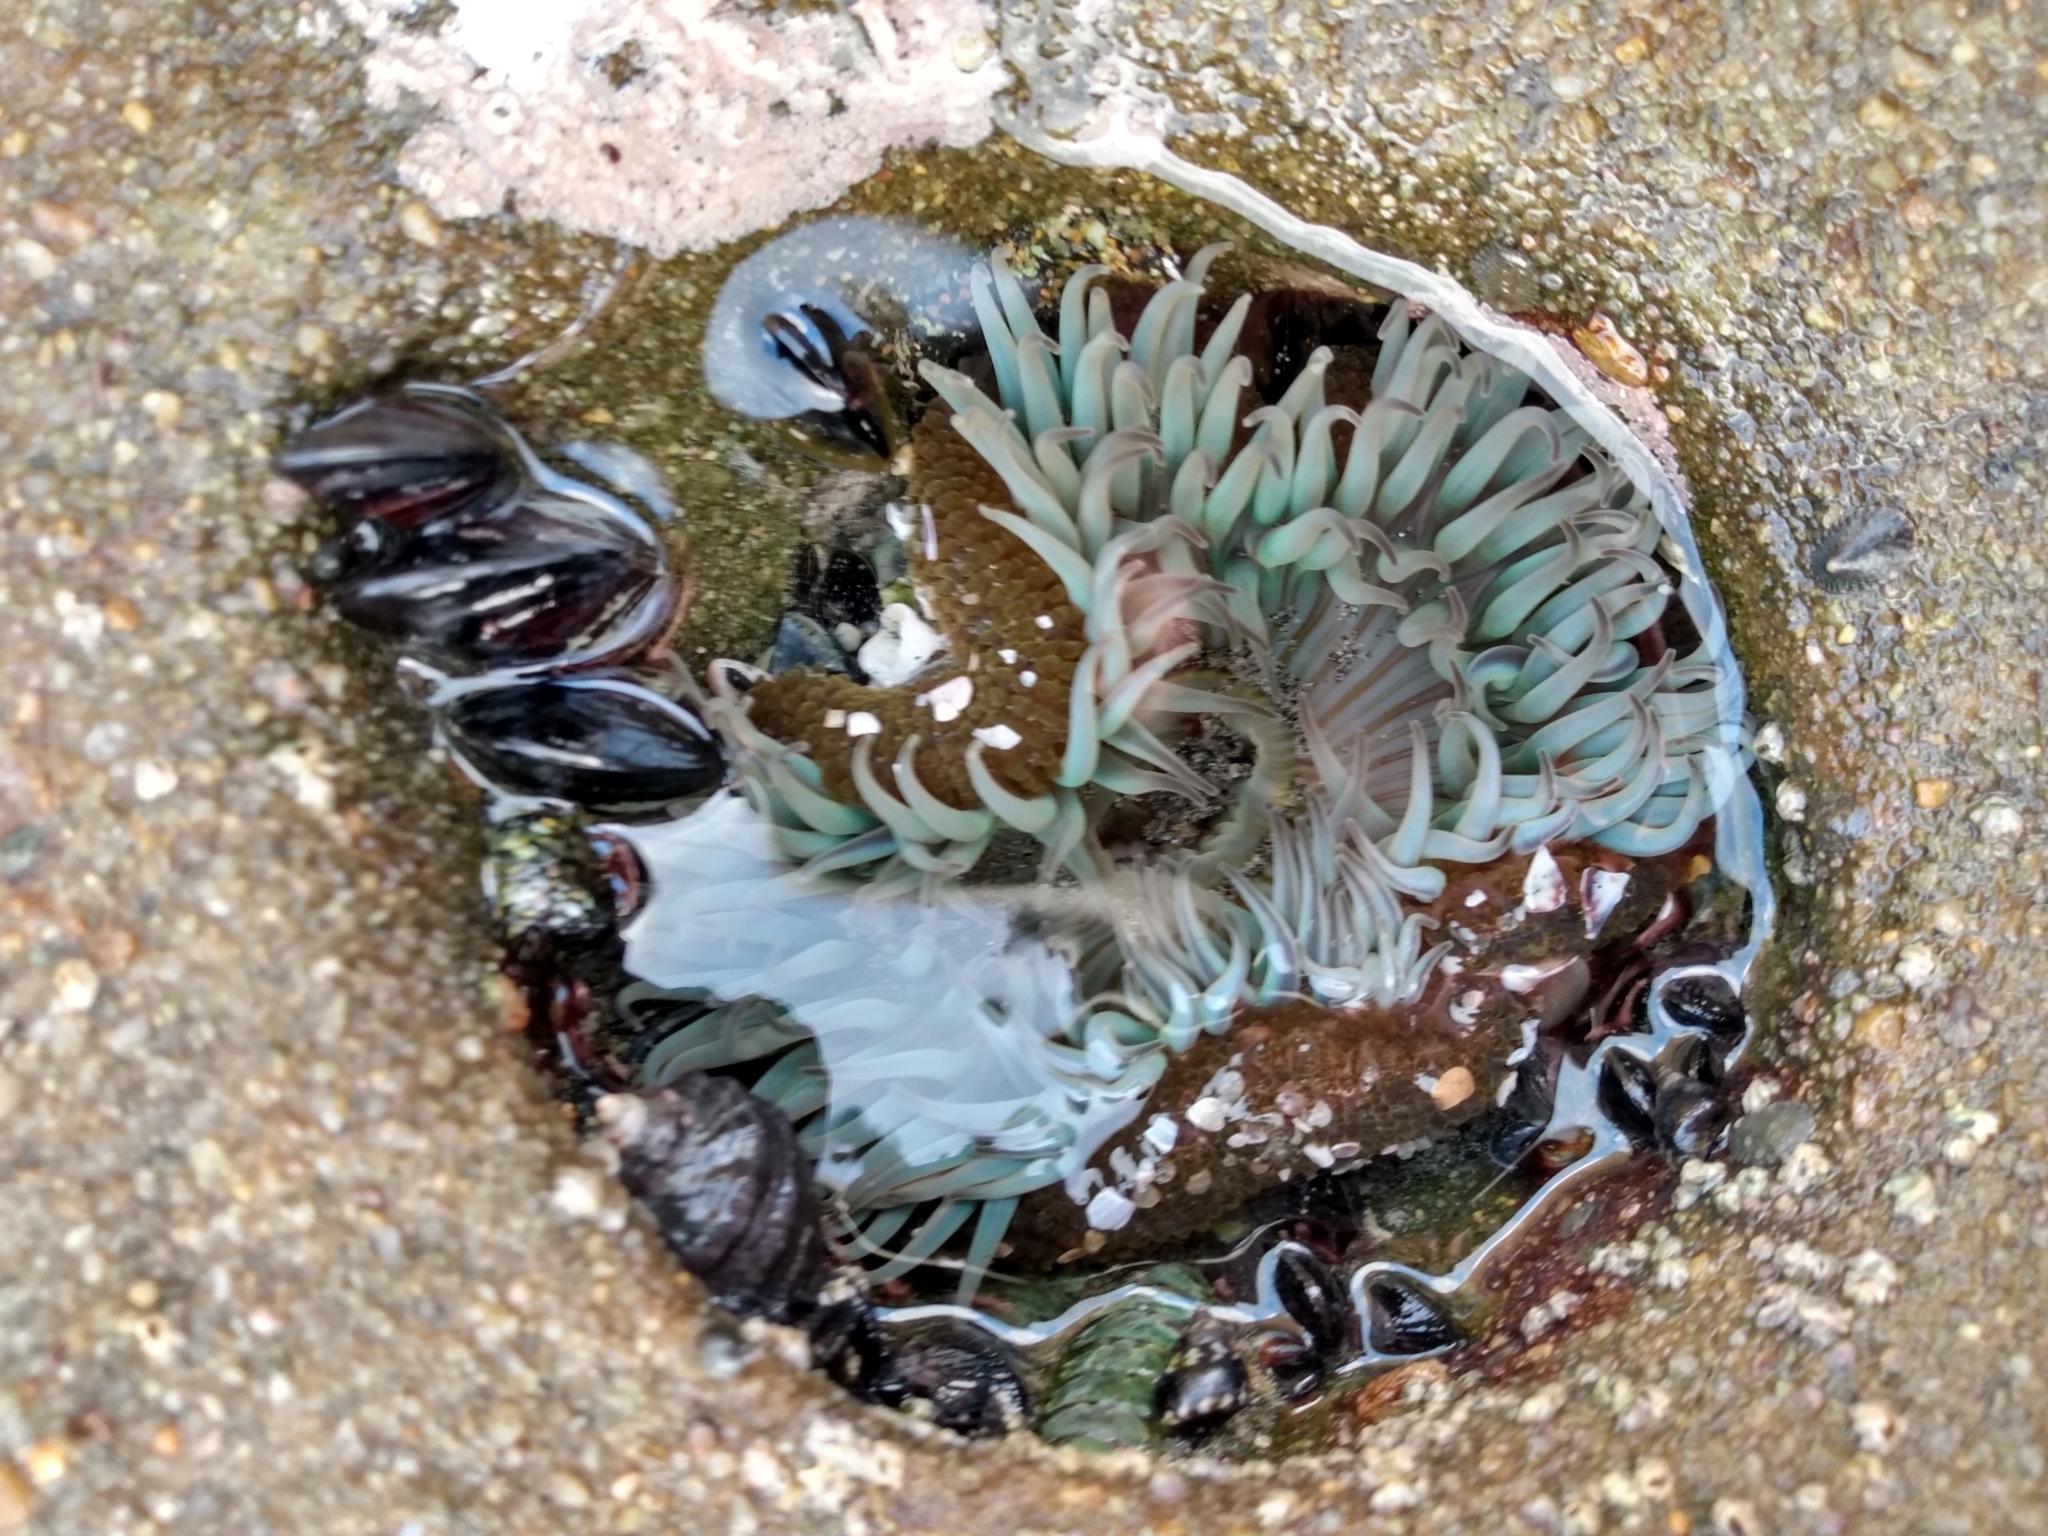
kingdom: Animalia
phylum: Cnidaria
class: Anthozoa
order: Actiniaria
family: Actiniidae
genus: Anthopleura
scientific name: Anthopleura sola
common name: Sun anemone
